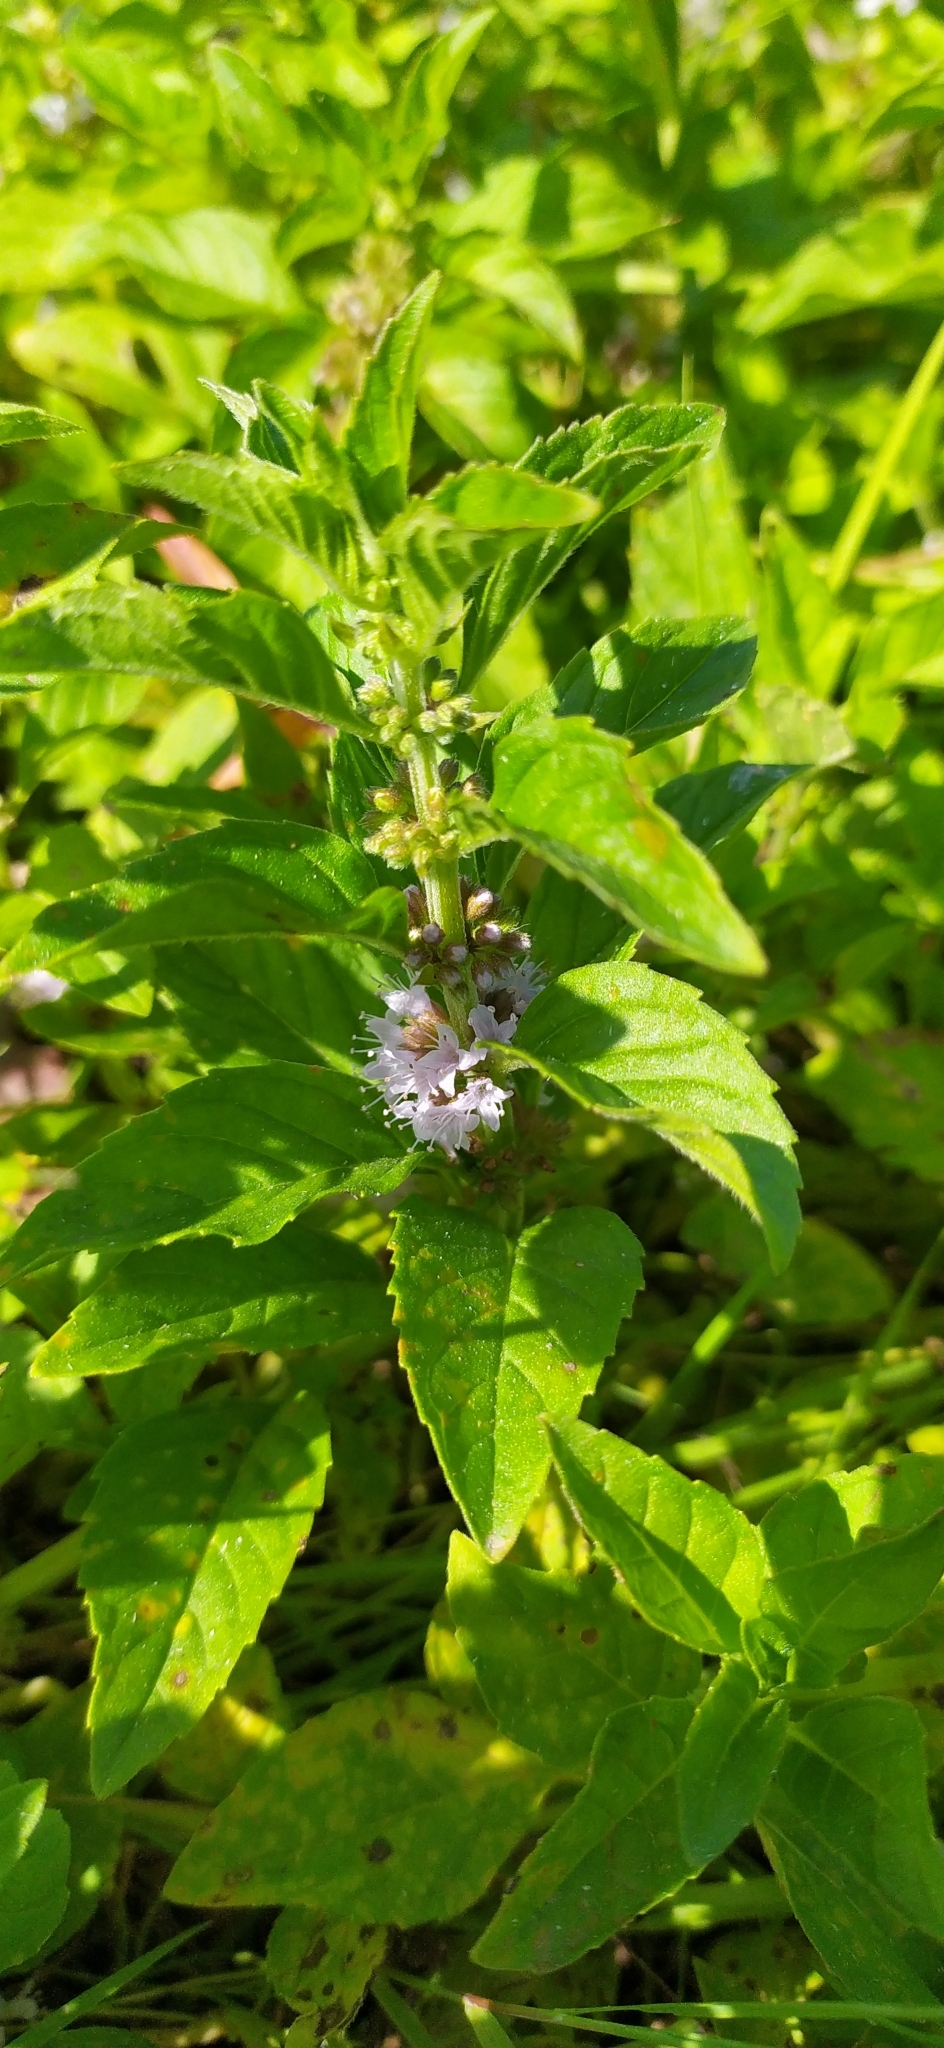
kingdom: Plantae
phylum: Tracheophyta
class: Magnoliopsida
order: Lamiales
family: Lamiaceae
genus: Mentha
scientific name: Mentha arvensis
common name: Corn mint
